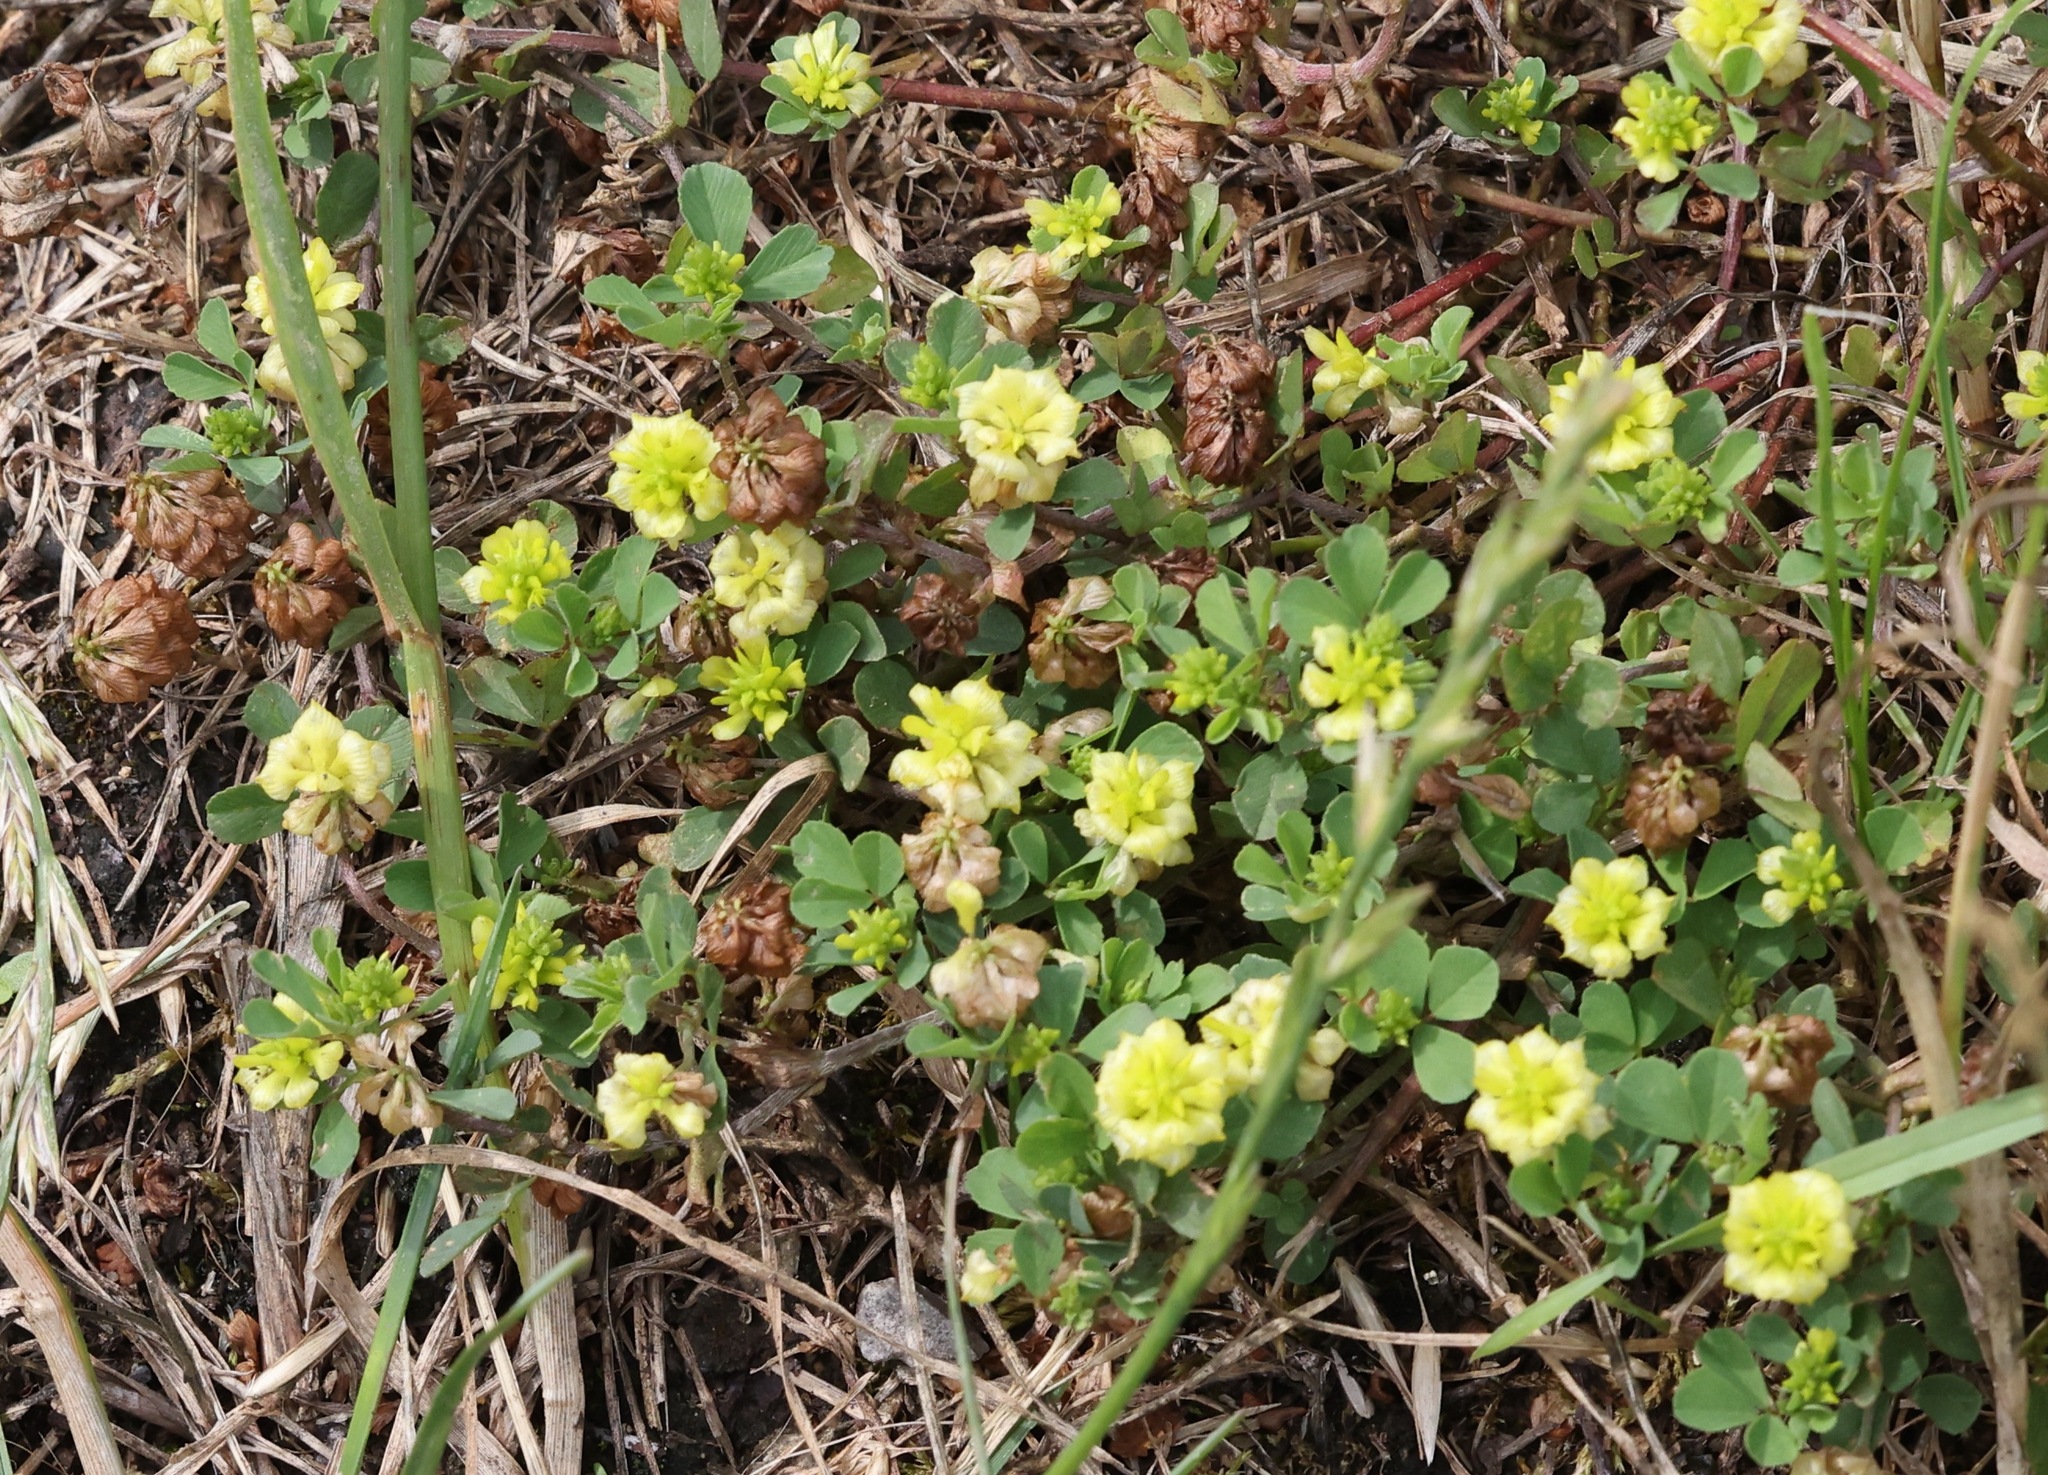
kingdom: Plantae
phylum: Tracheophyta
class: Magnoliopsida
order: Fabales
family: Fabaceae
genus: Trifolium
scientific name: Trifolium campestre
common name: Field clover
